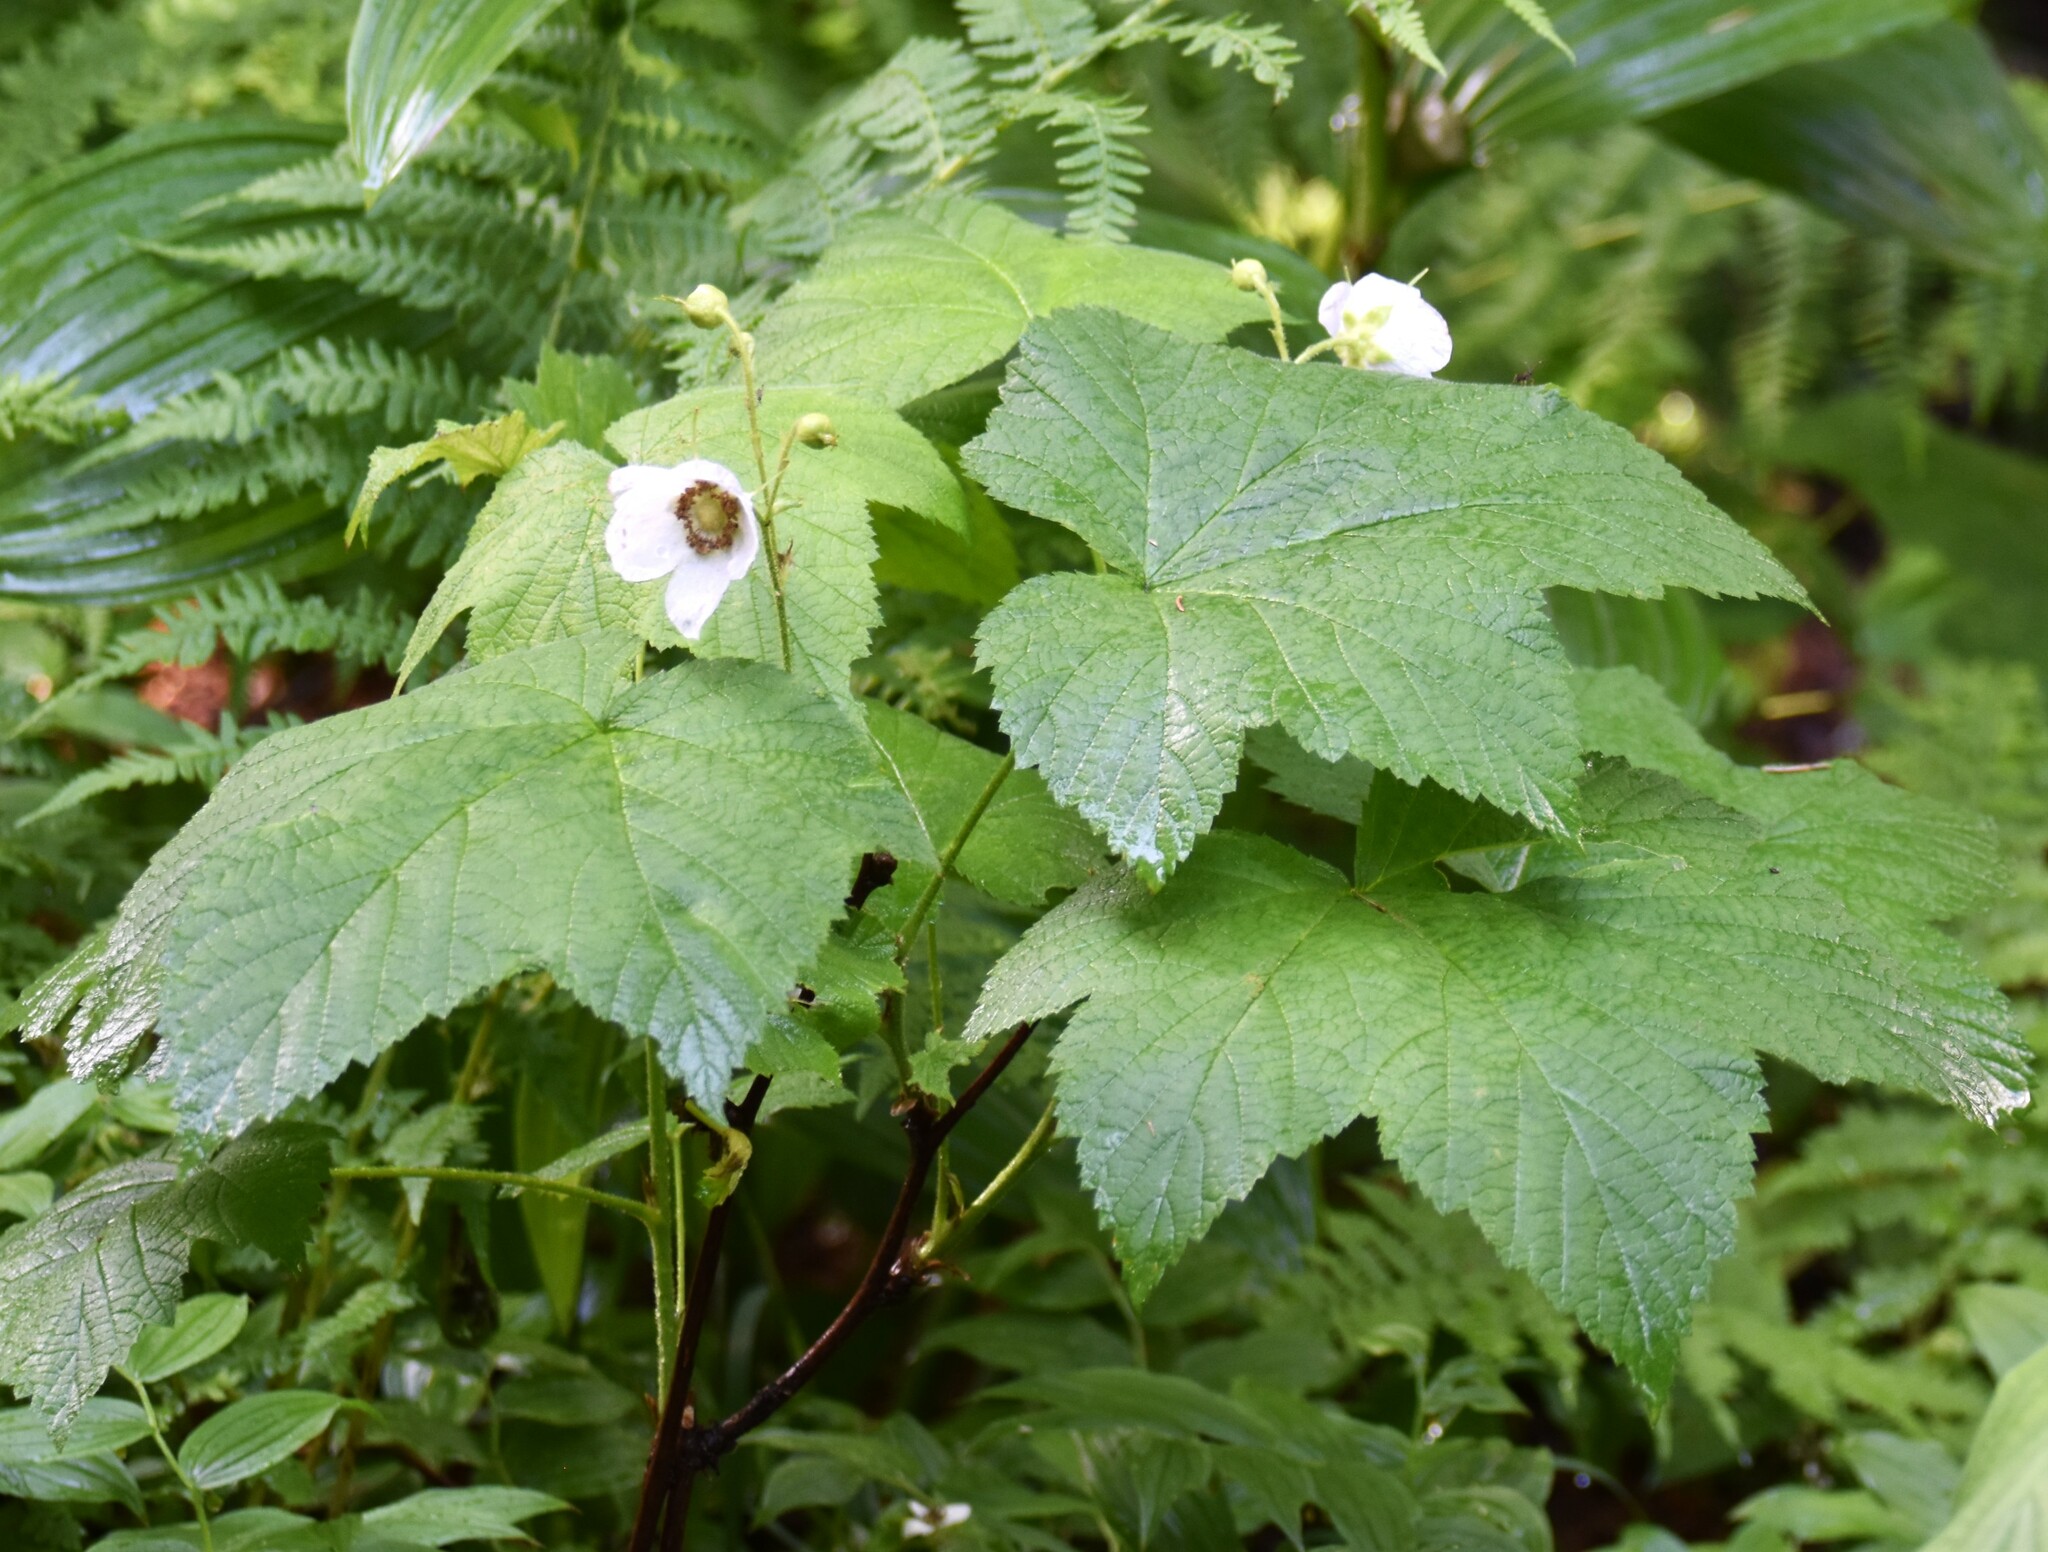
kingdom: Plantae
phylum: Tracheophyta
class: Magnoliopsida
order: Rosales
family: Rosaceae
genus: Rubus
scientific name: Rubus parviflorus
